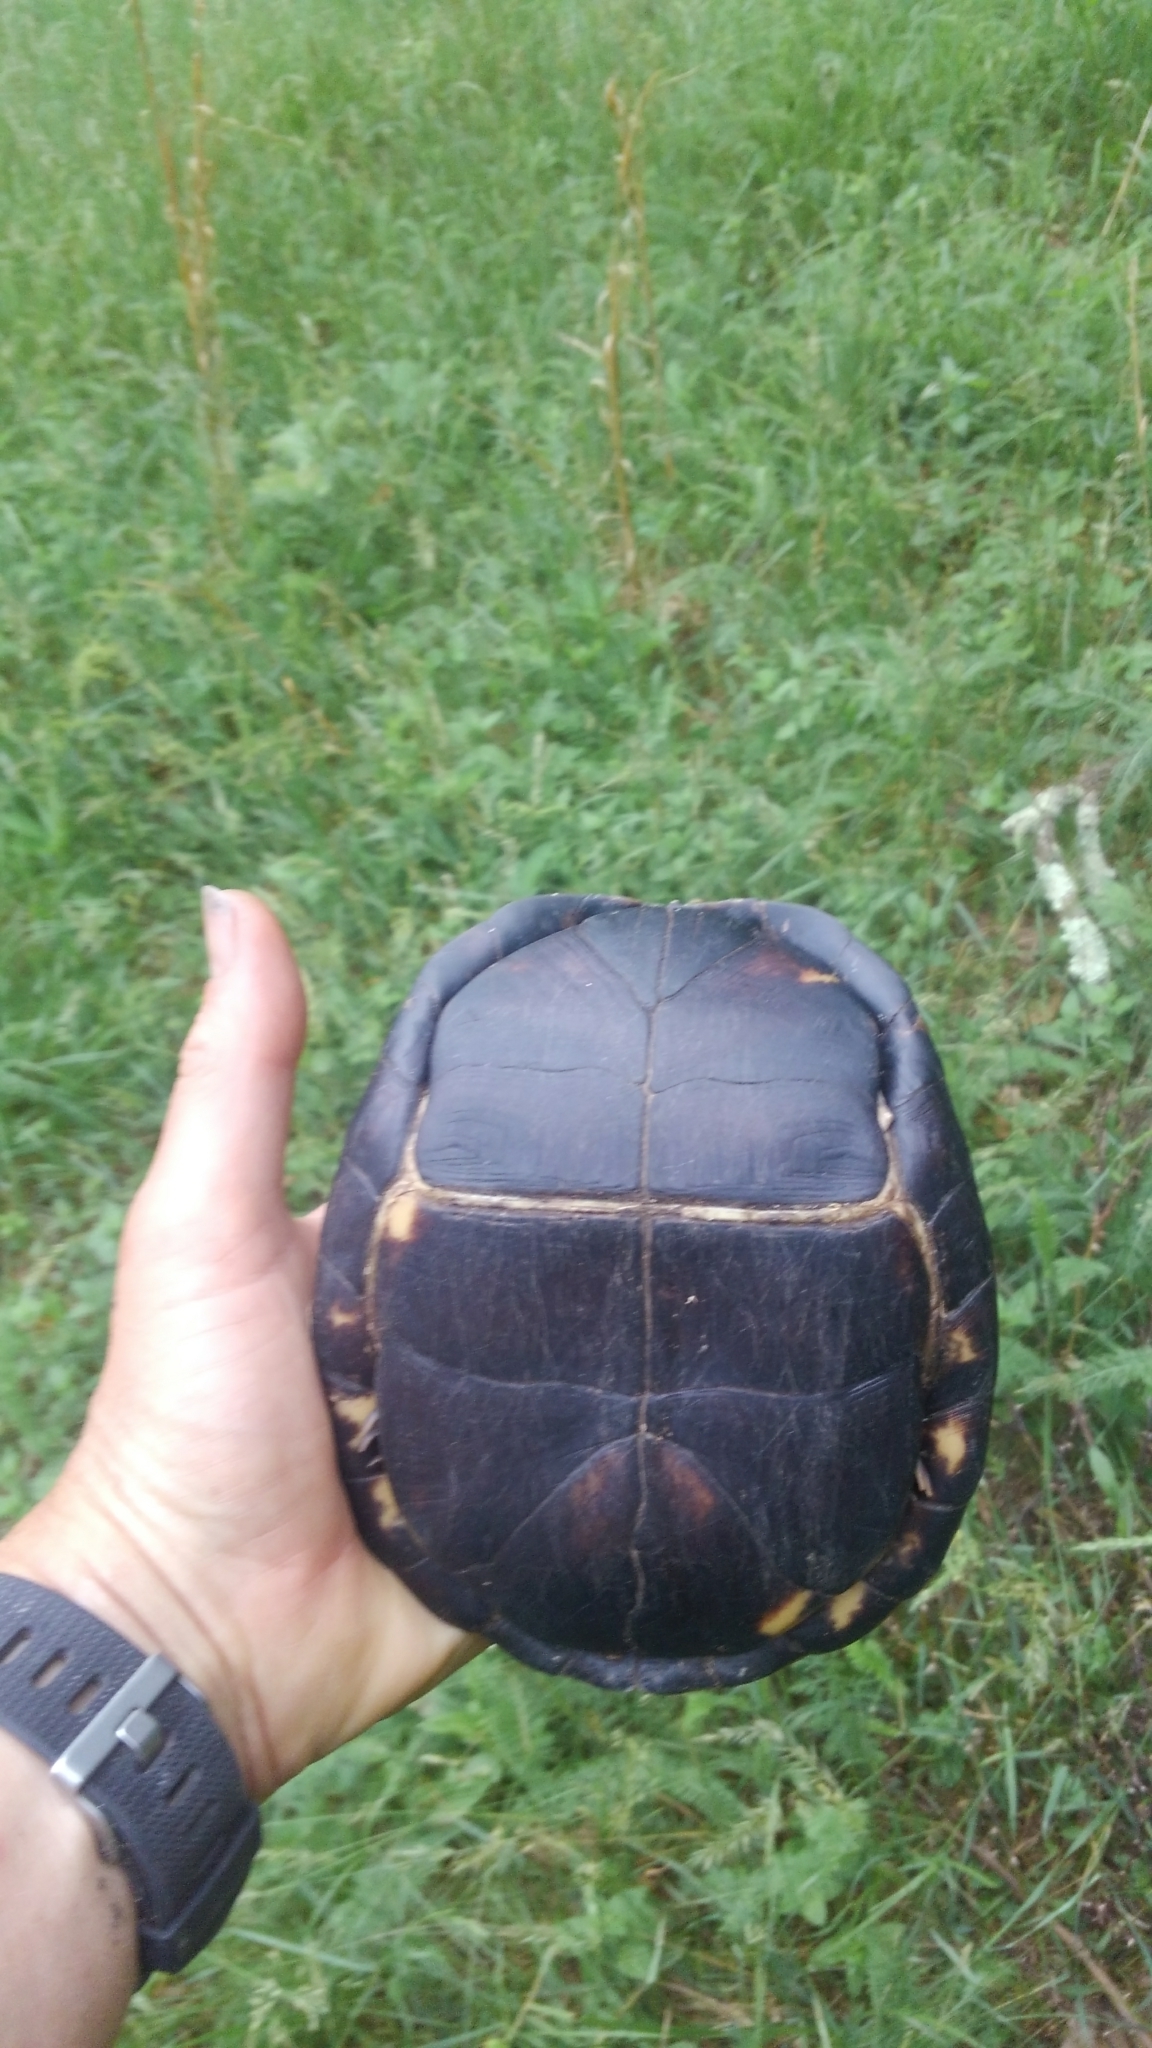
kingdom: Animalia
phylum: Chordata
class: Testudines
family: Emydidae
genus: Terrapene
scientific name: Terrapene carolina
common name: Common box turtle
